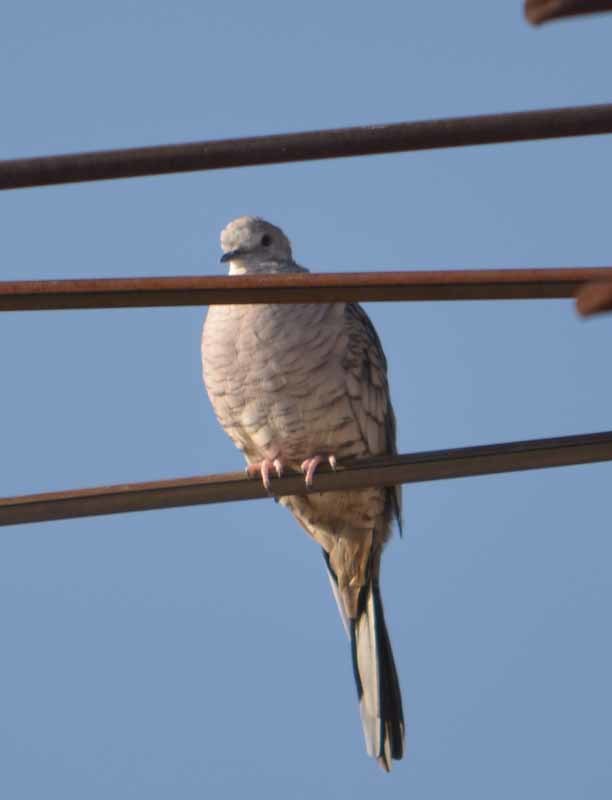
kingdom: Animalia
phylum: Chordata
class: Aves
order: Columbiformes
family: Columbidae
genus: Columbina
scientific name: Columbina inca
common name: Inca dove
